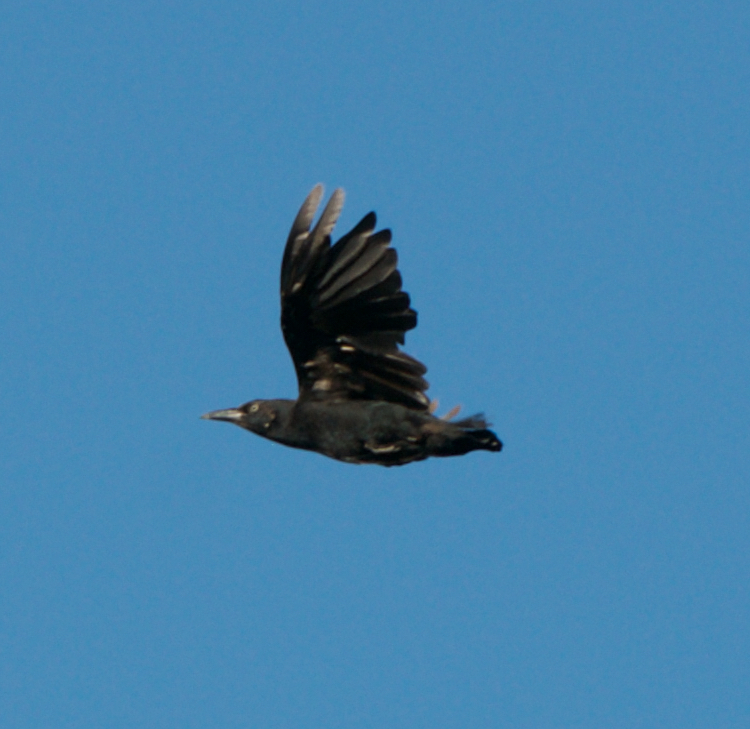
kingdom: Animalia
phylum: Chordata
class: Aves
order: Passeriformes
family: Icteridae
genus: Quiscalus
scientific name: Quiscalus mexicanus
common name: Great-tailed grackle
